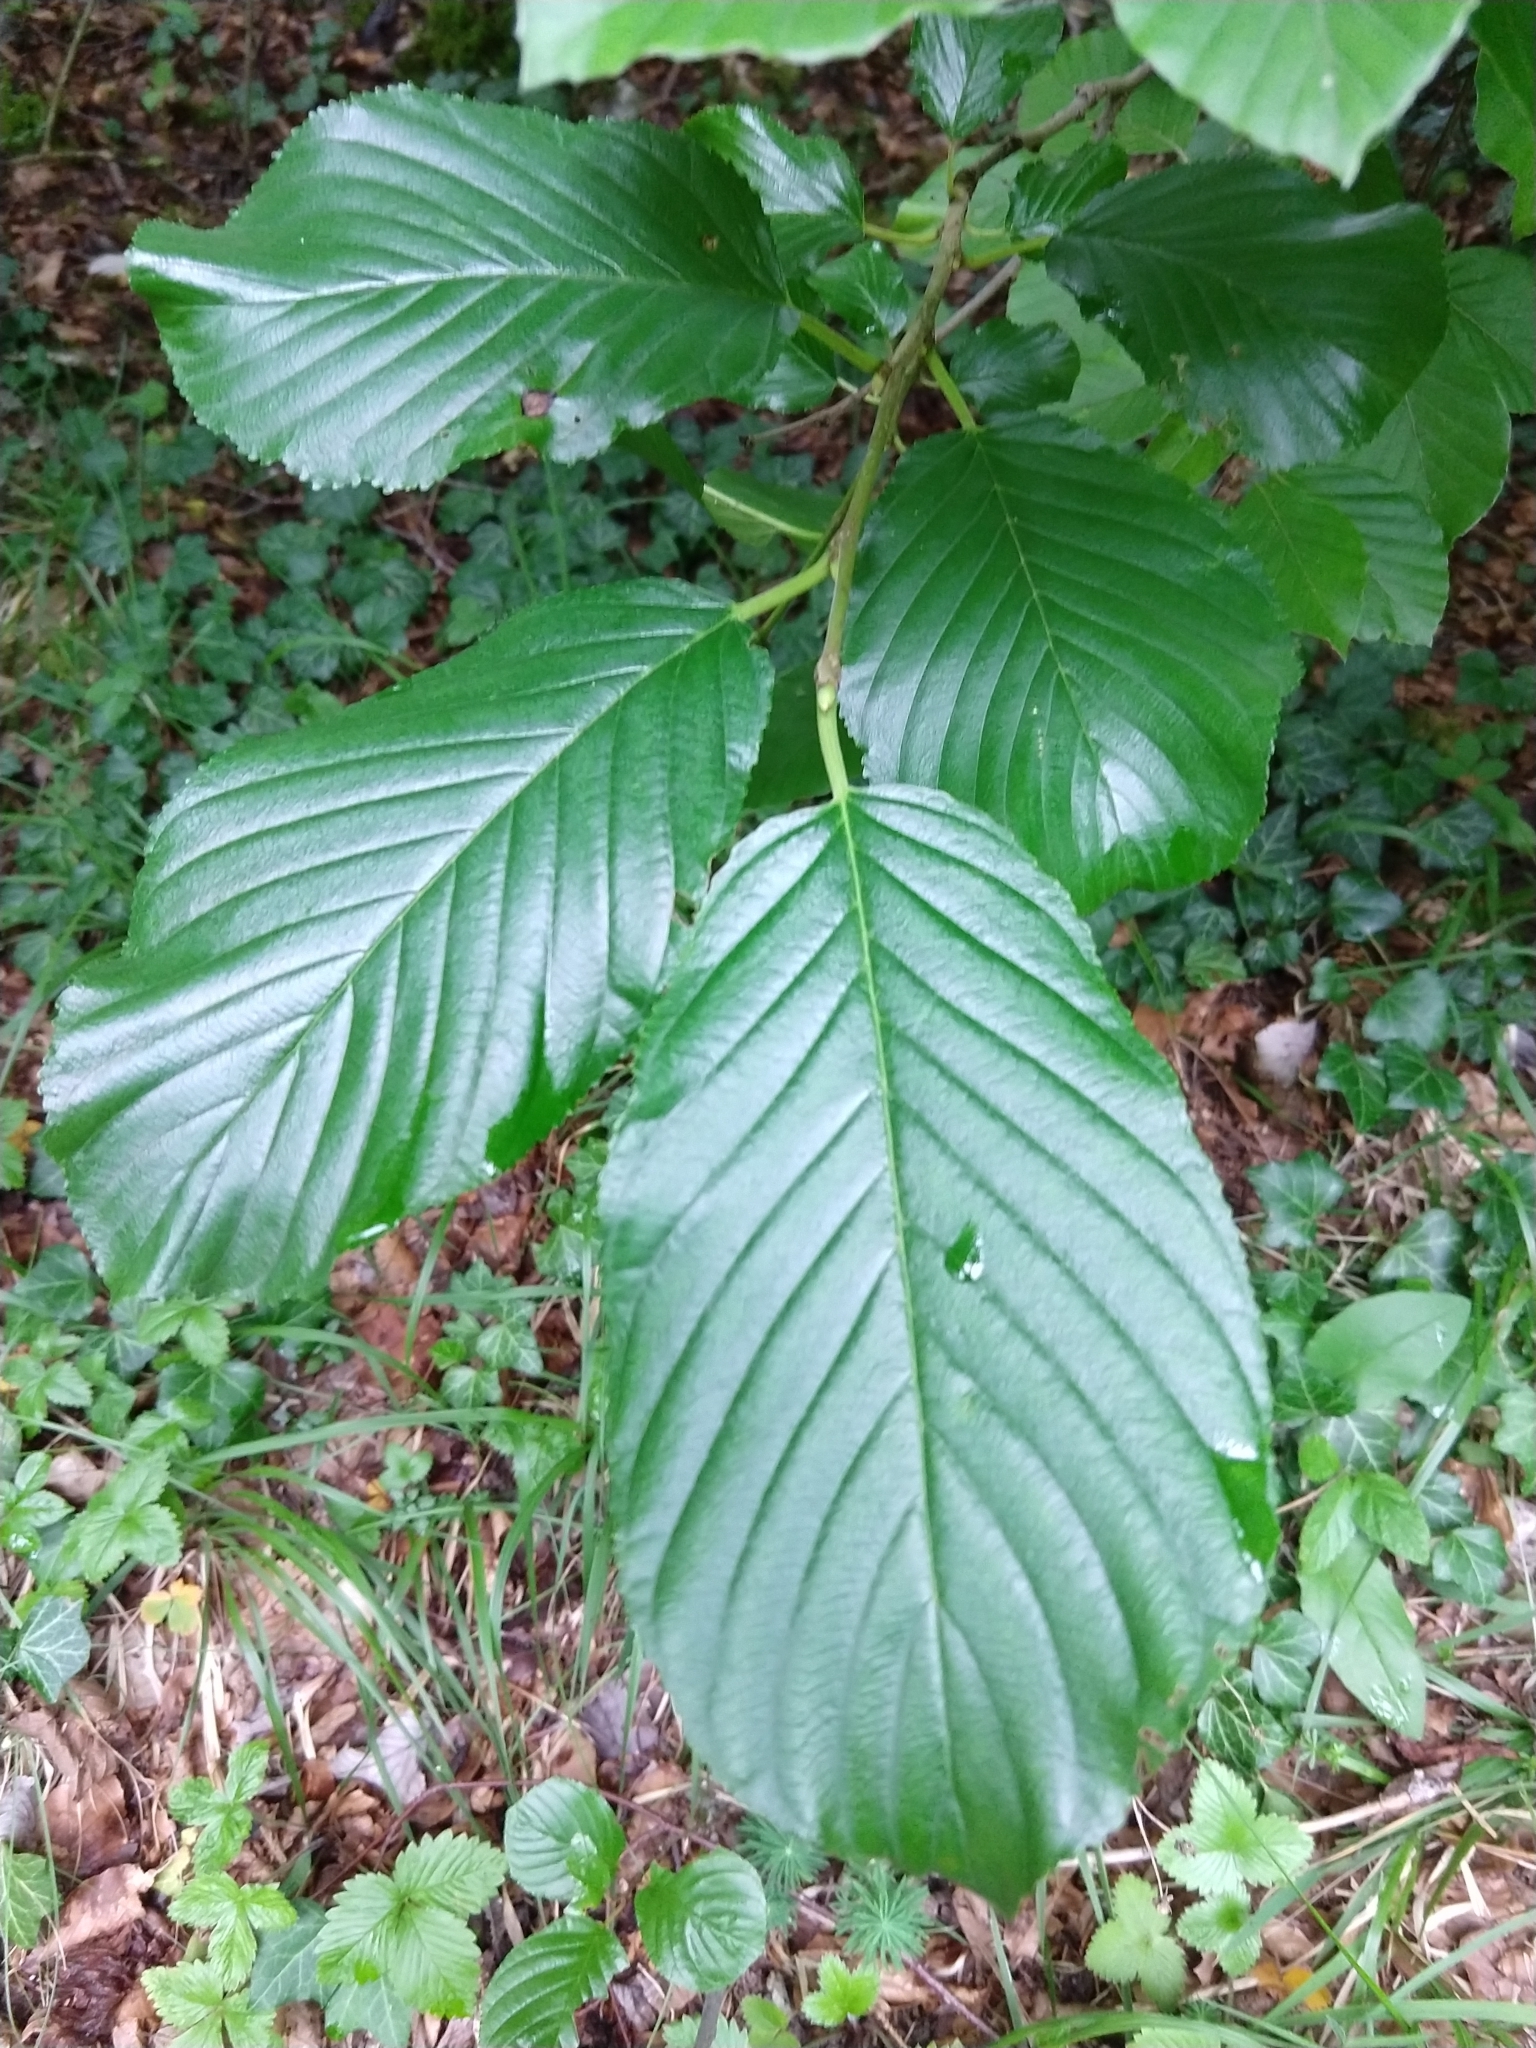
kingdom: Plantae
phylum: Tracheophyta
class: Magnoliopsida
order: Rosales
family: Rhamnaceae
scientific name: Rhamnaceae
